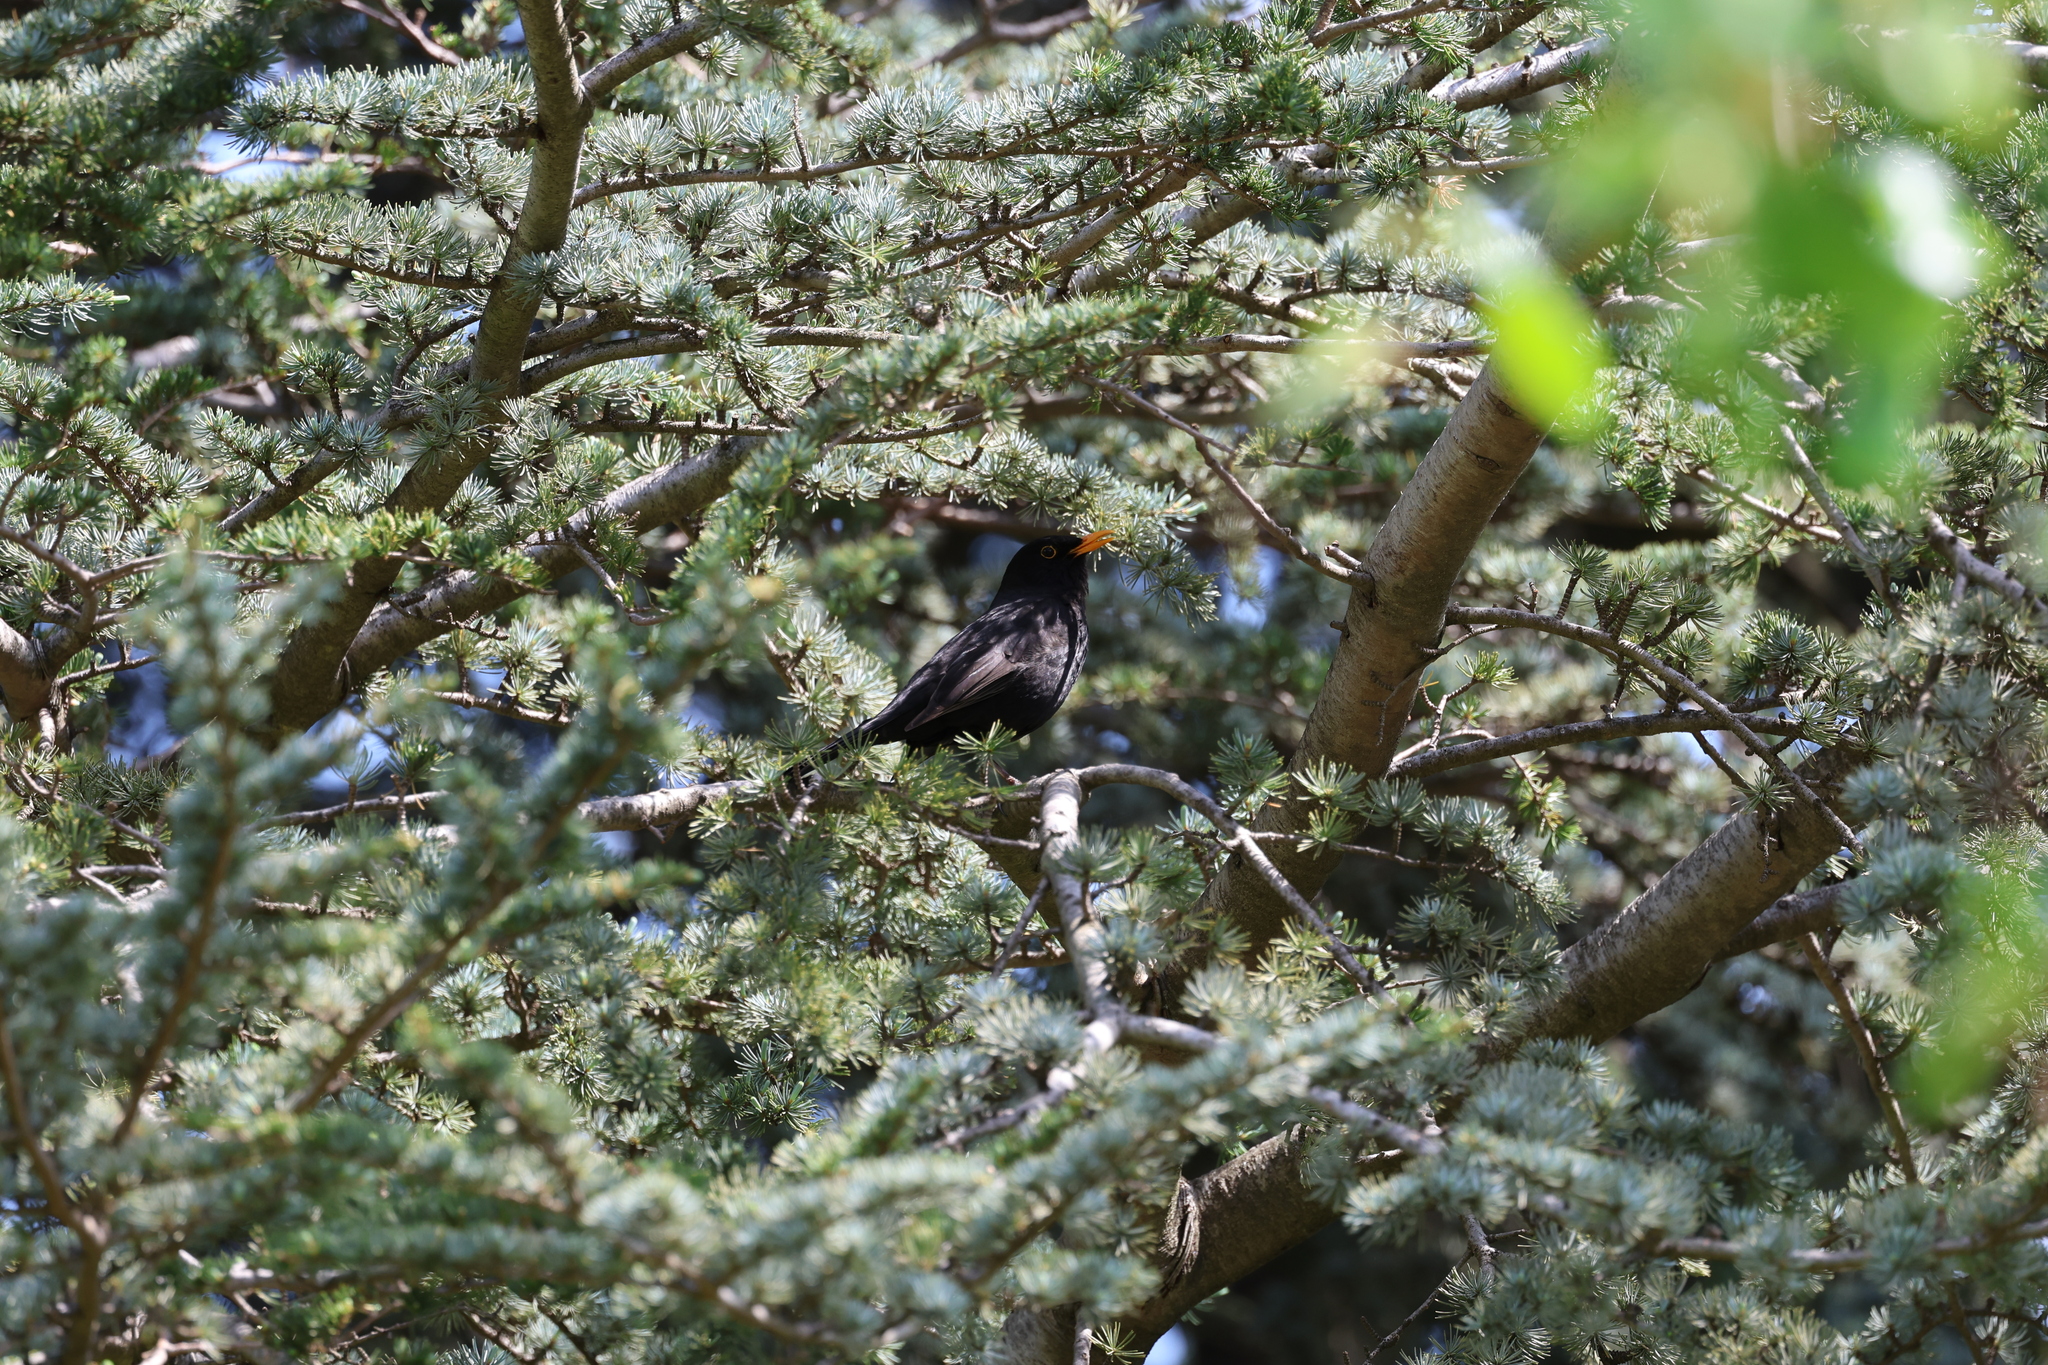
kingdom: Animalia
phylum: Chordata
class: Aves
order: Passeriformes
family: Turdidae
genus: Turdus
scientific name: Turdus merula
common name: Common blackbird
